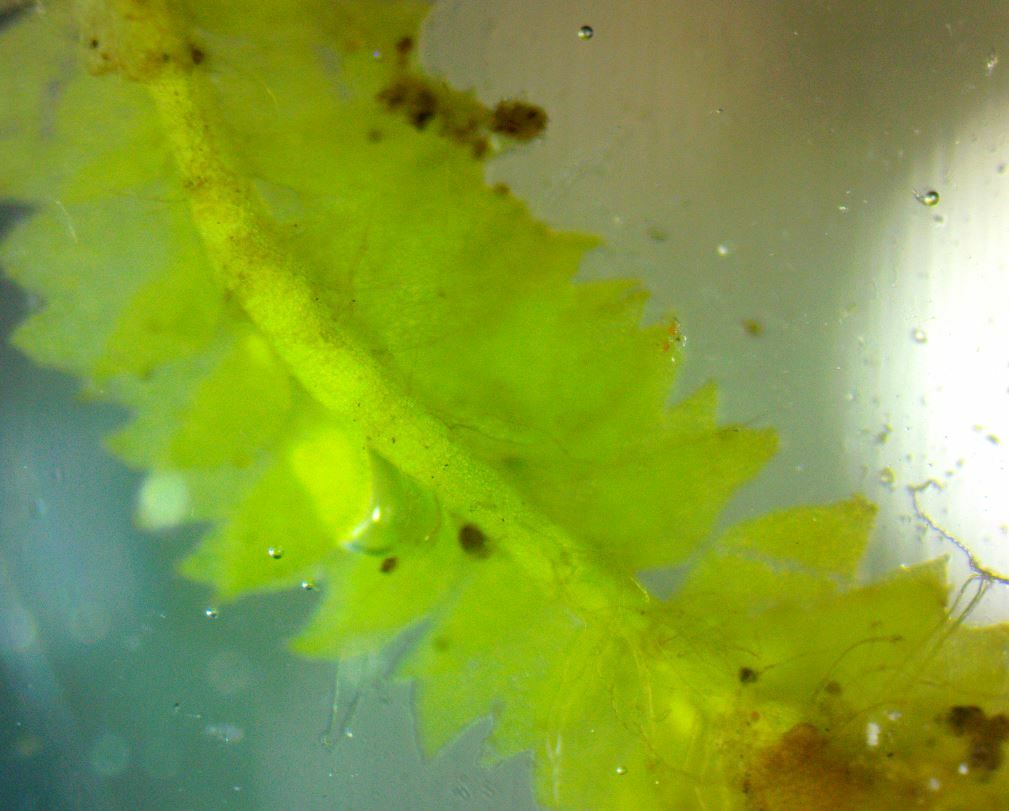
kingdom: Plantae
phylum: Marchantiophyta
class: Jungermanniopsida
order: Jungermanniales
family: Geocalycaceae
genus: Geocalyx
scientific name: Geocalyx graveolens
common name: Turps pouchwort
